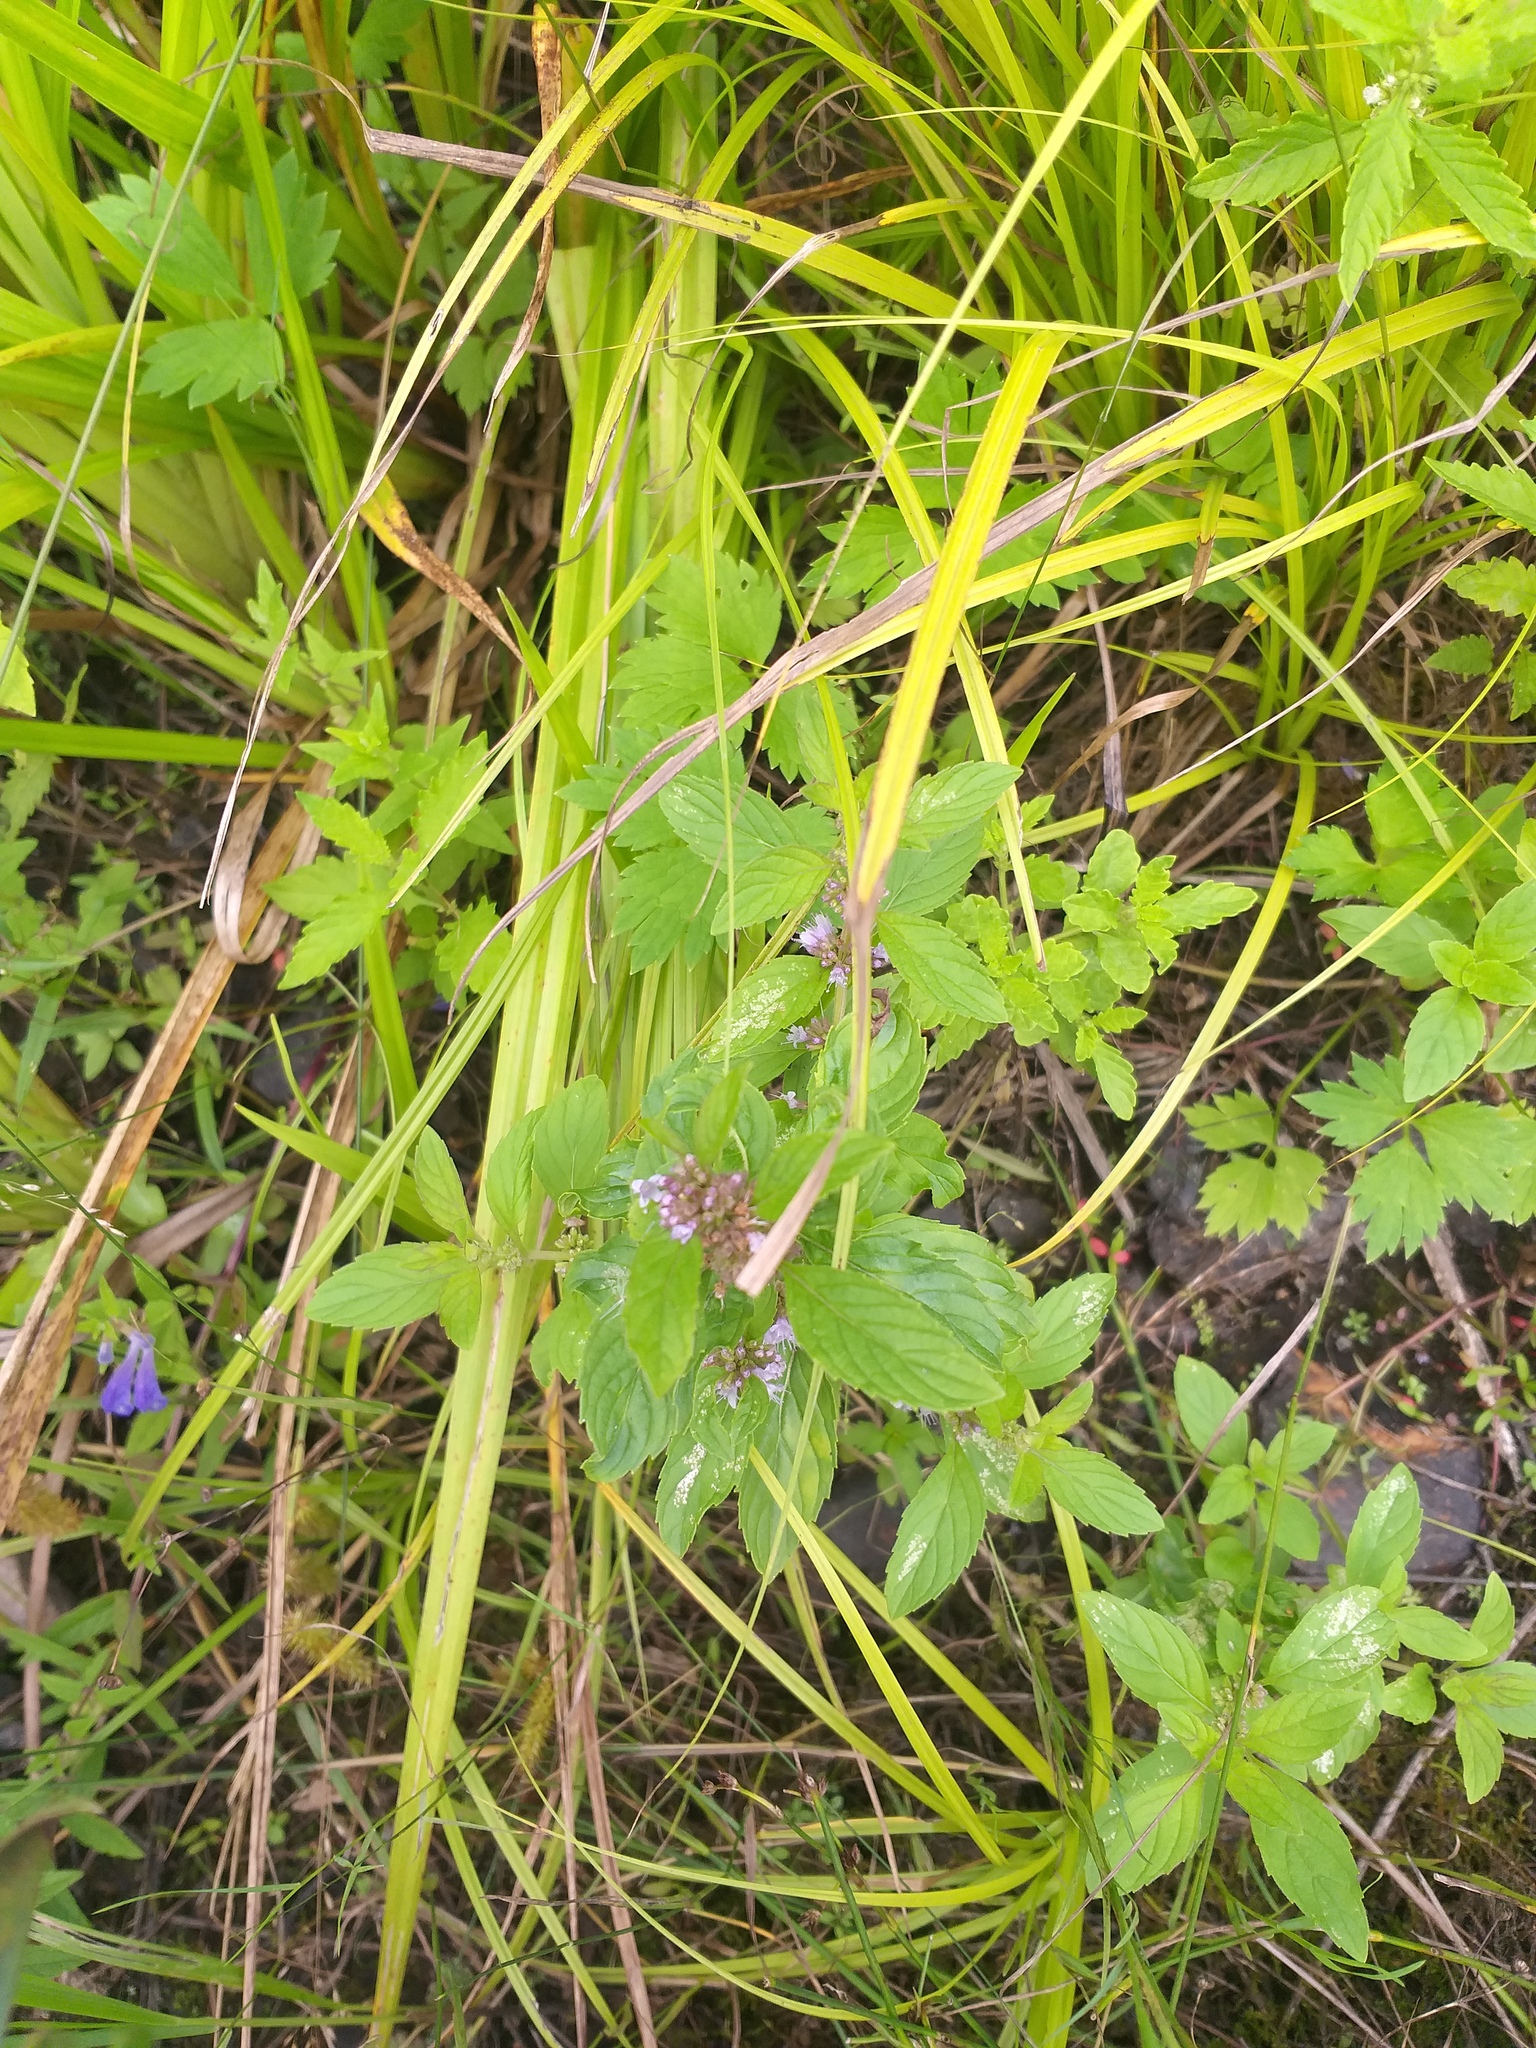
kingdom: Plantae
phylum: Tracheophyta
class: Magnoliopsida
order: Lamiales
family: Lamiaceae
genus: Mentha
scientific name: Mentha arvensis
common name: Corn mint
